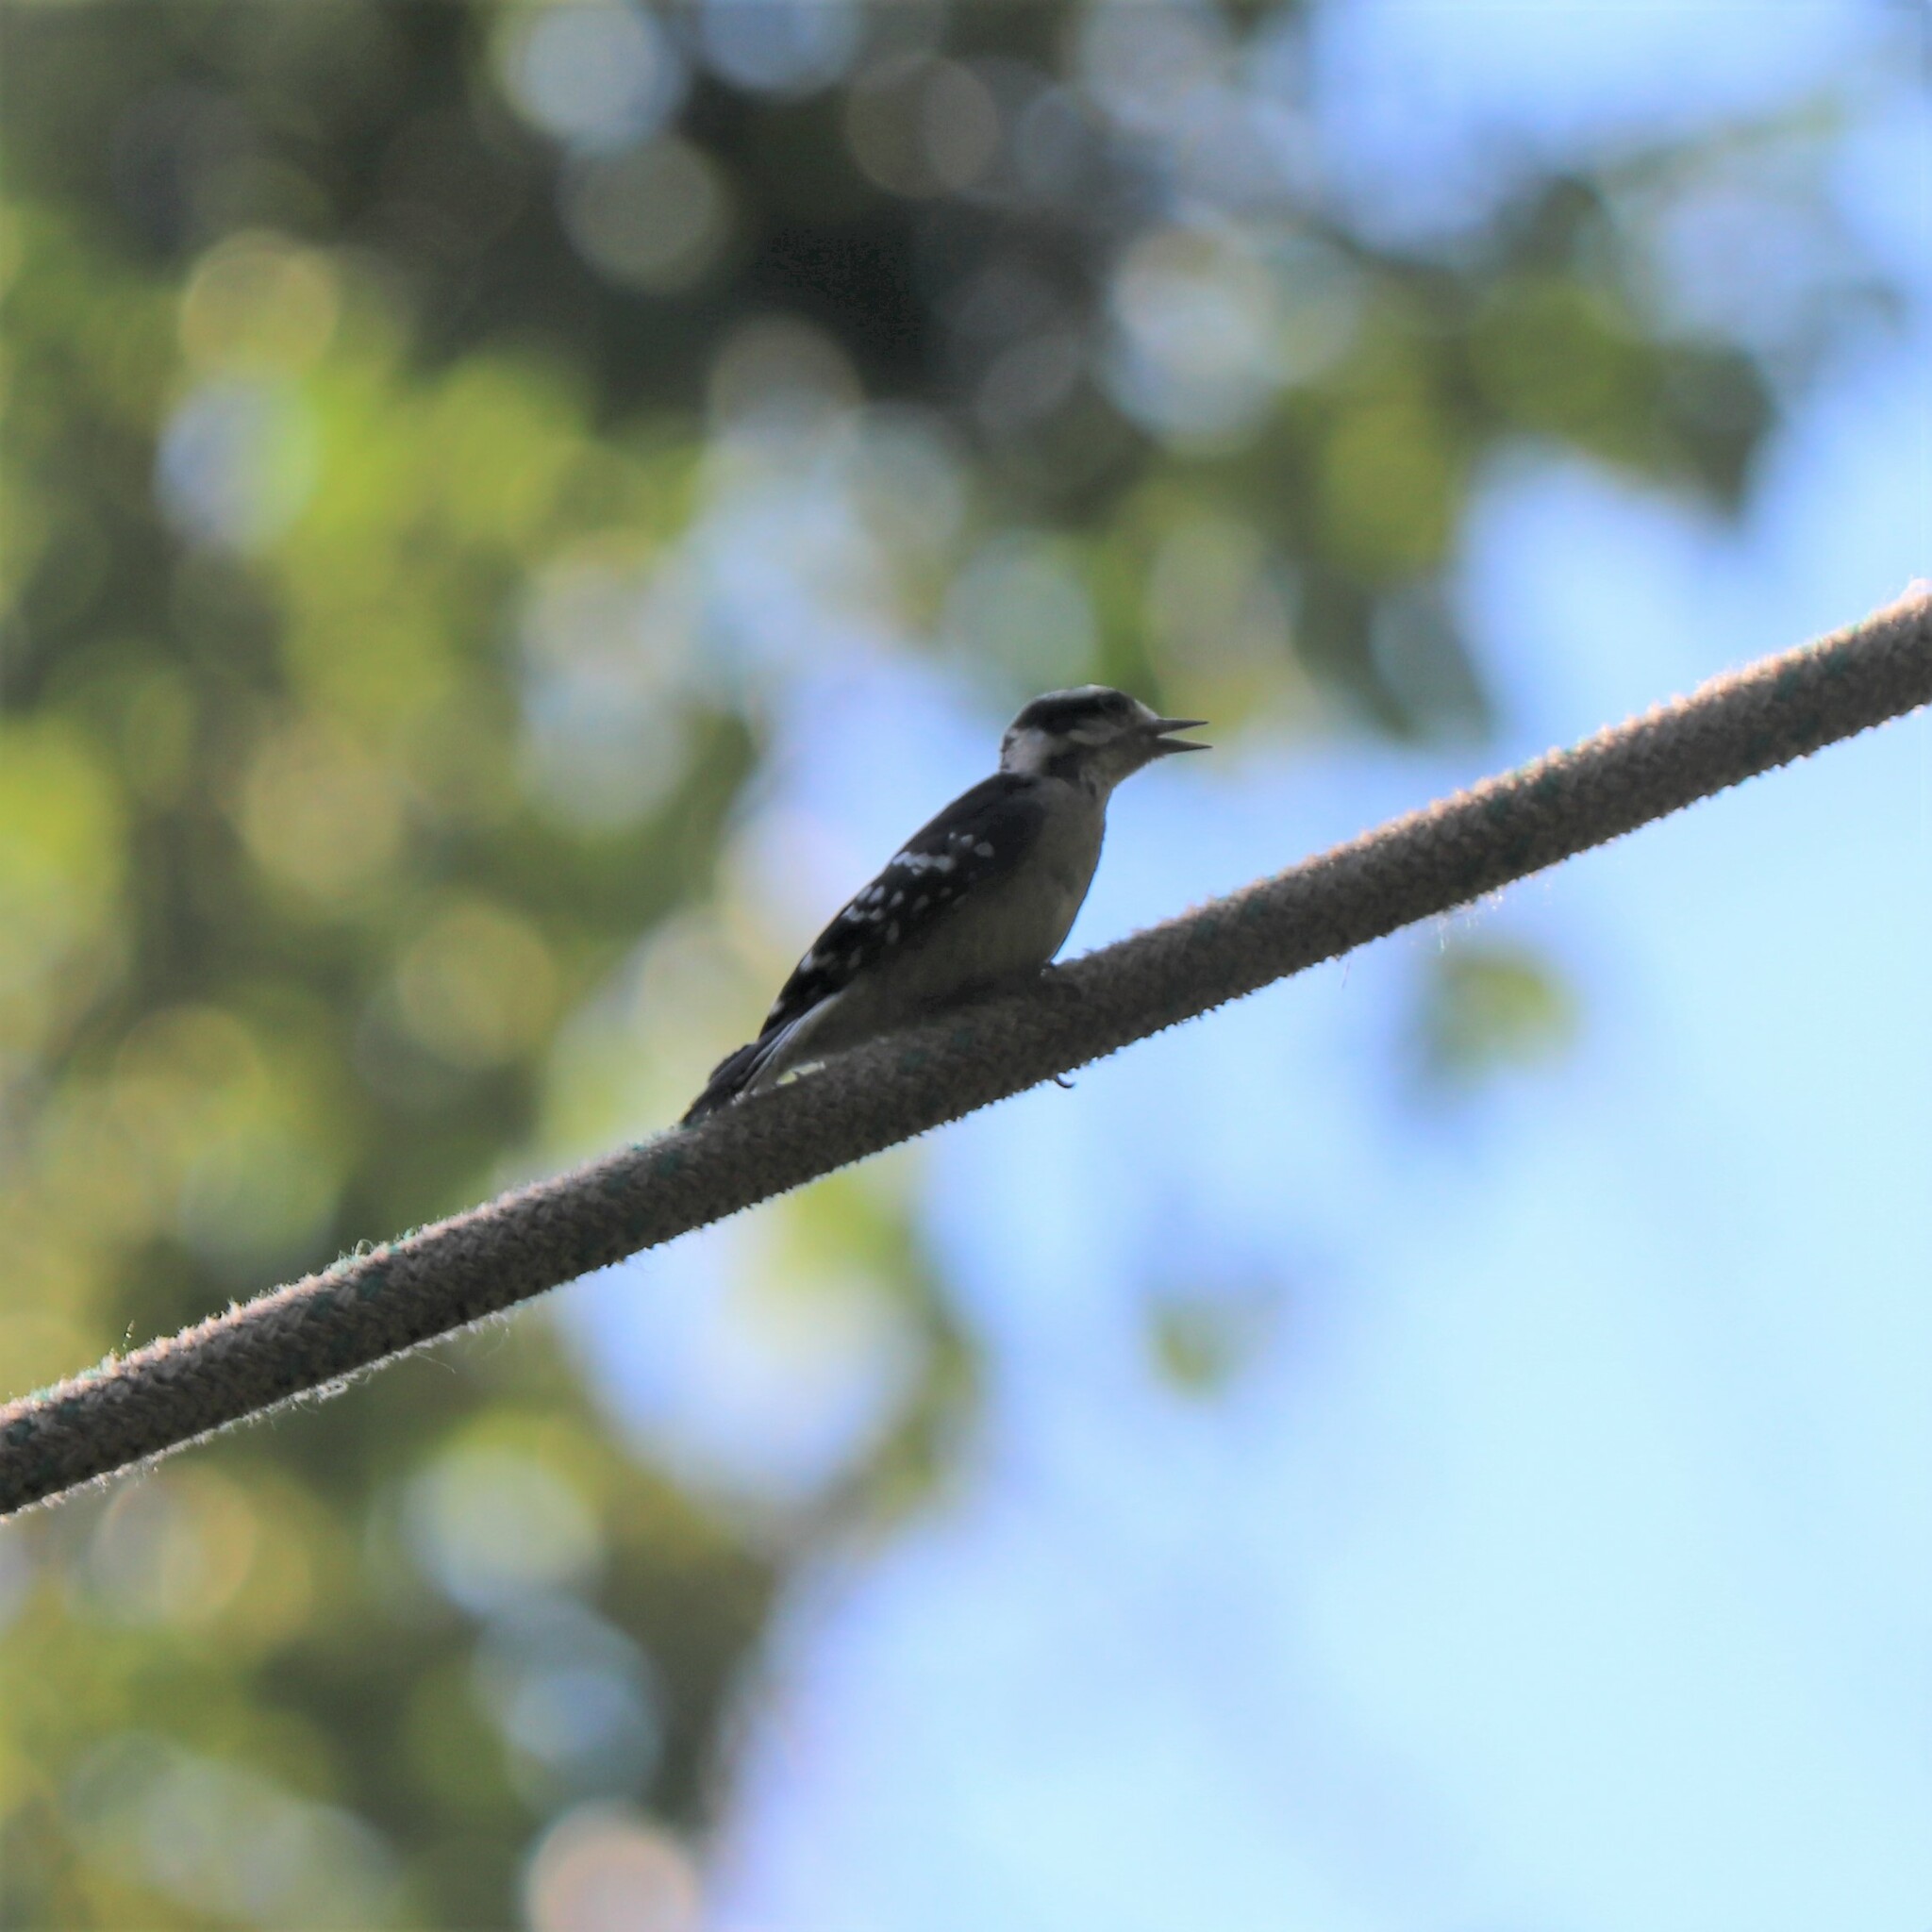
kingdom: Animalia
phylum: Chordata
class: Aves
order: Piciformes
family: Picidae
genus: Dryobates
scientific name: Dryobates pubescens
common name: Downy woodpecker
